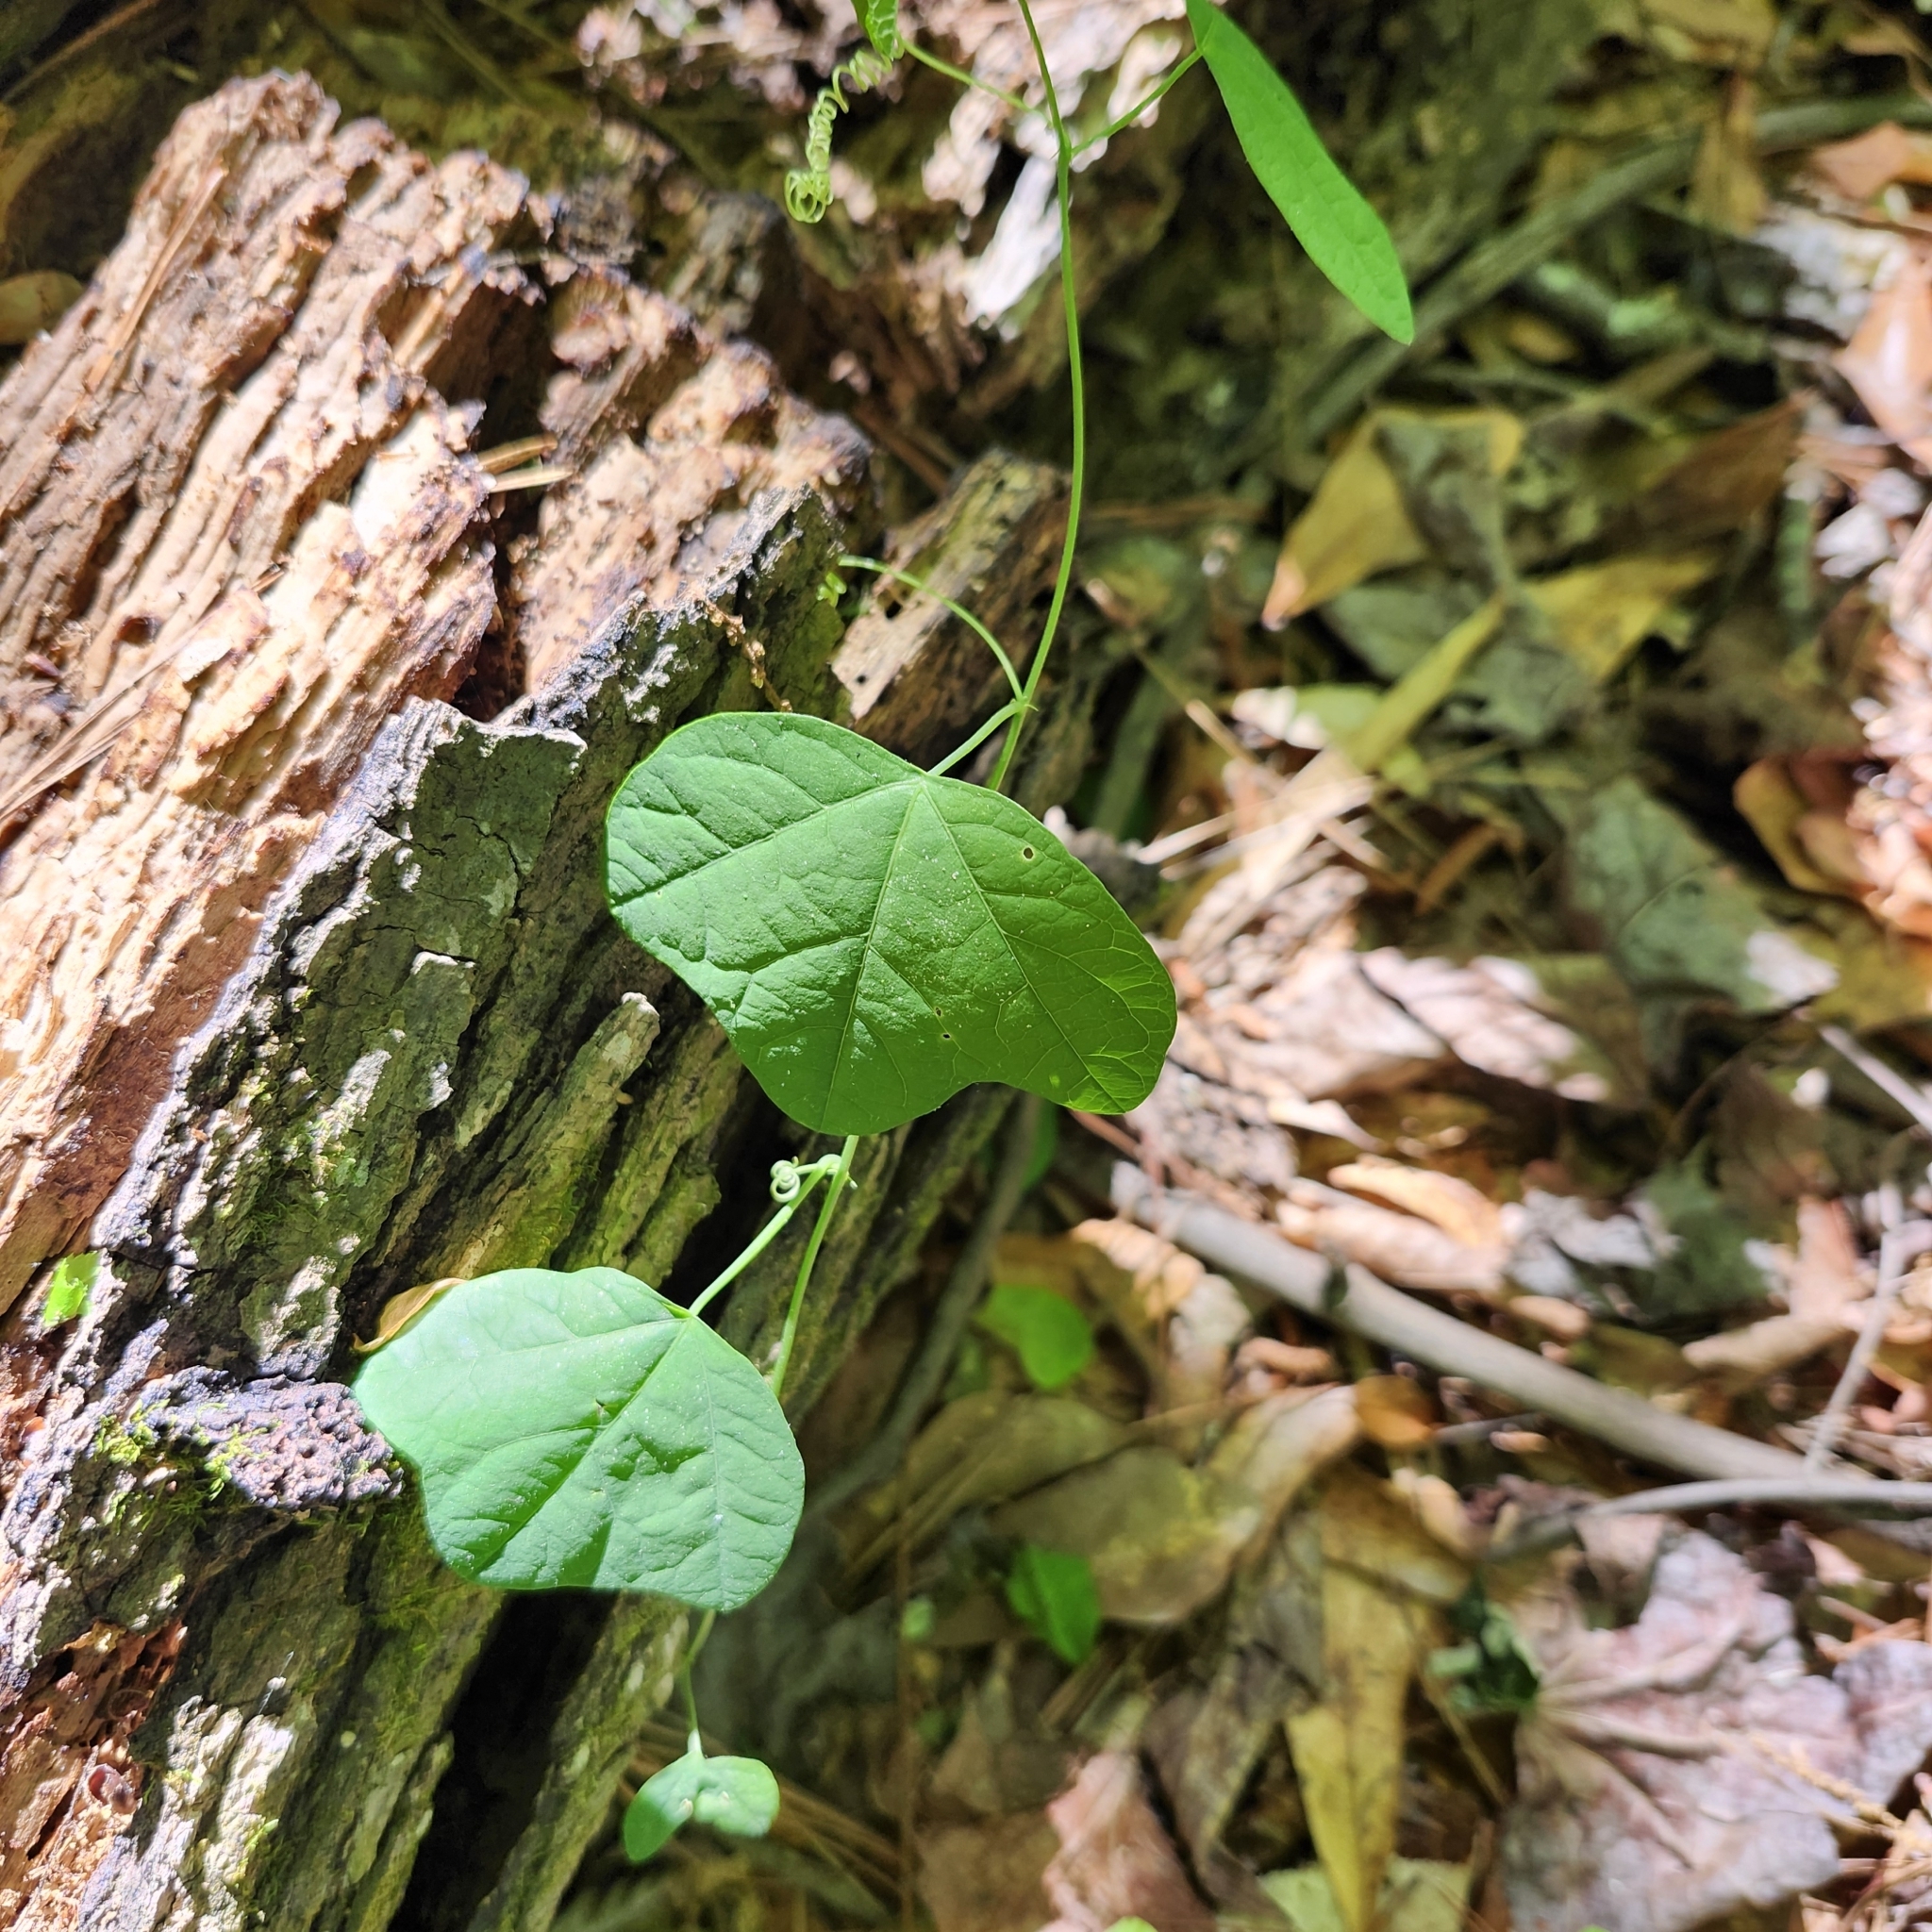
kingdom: Plantae
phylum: Tracheophyta
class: Magnoliopsida
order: Malpighiales
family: Passifloraceae
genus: Passiflora
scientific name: Passiflora lutea
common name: Yellow passionflower
